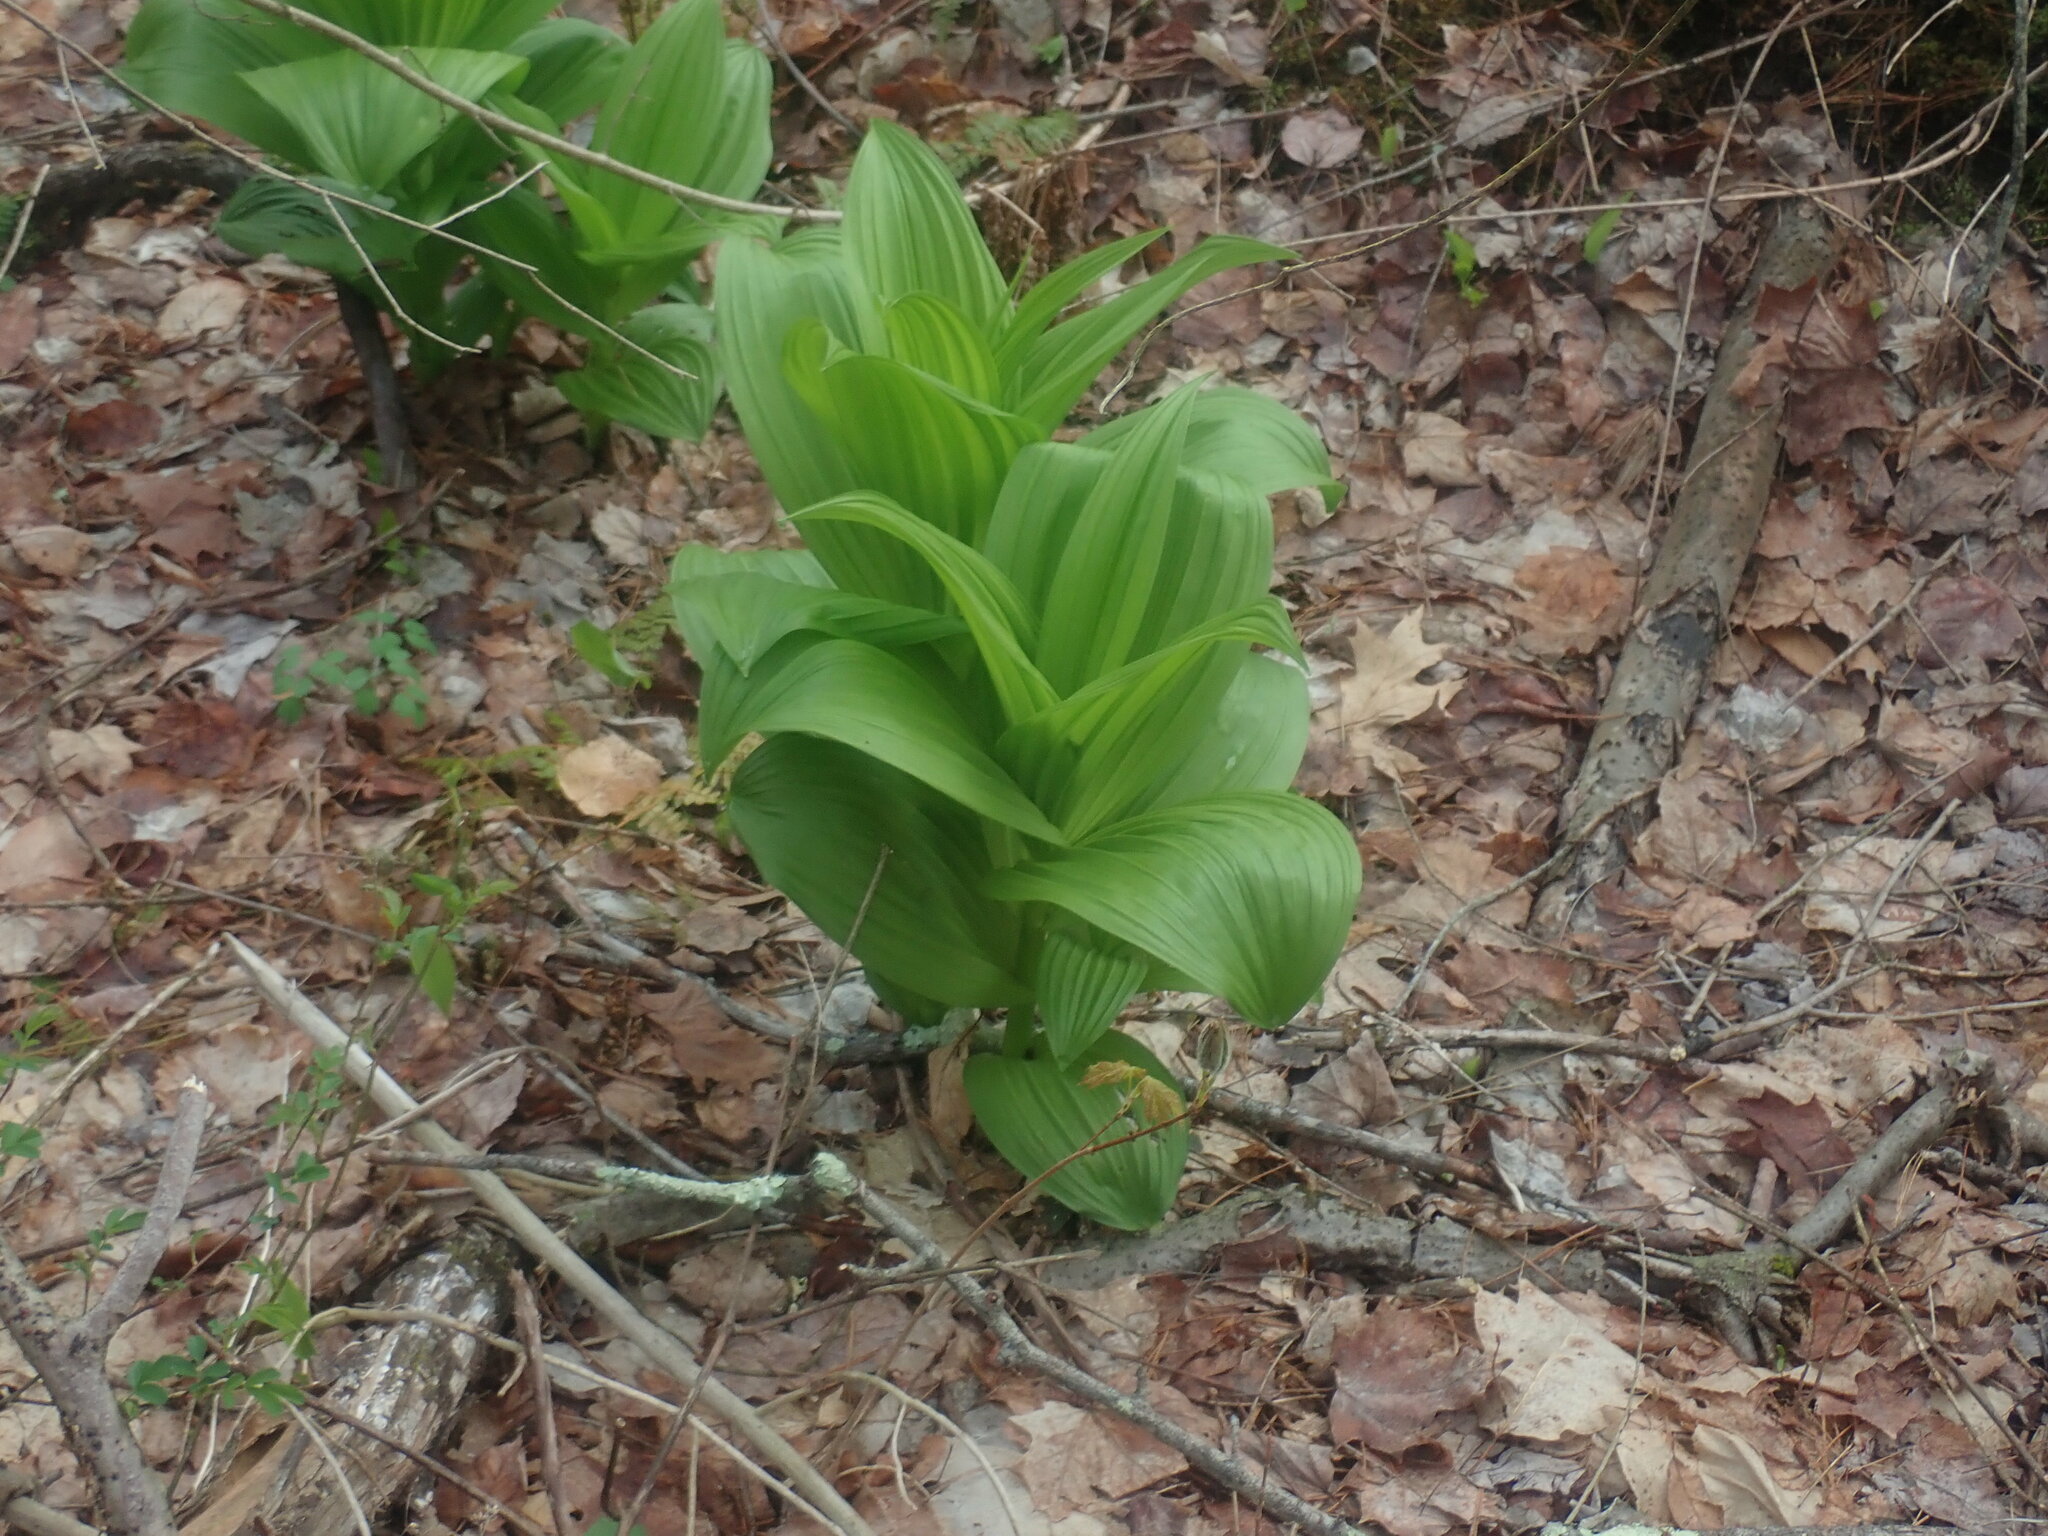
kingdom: Plantae
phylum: Tracheophyta
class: Liliopsida
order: Liliales
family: Melanthiaceae
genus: Veratrum
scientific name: Veratrum viride
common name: American false hellebore
